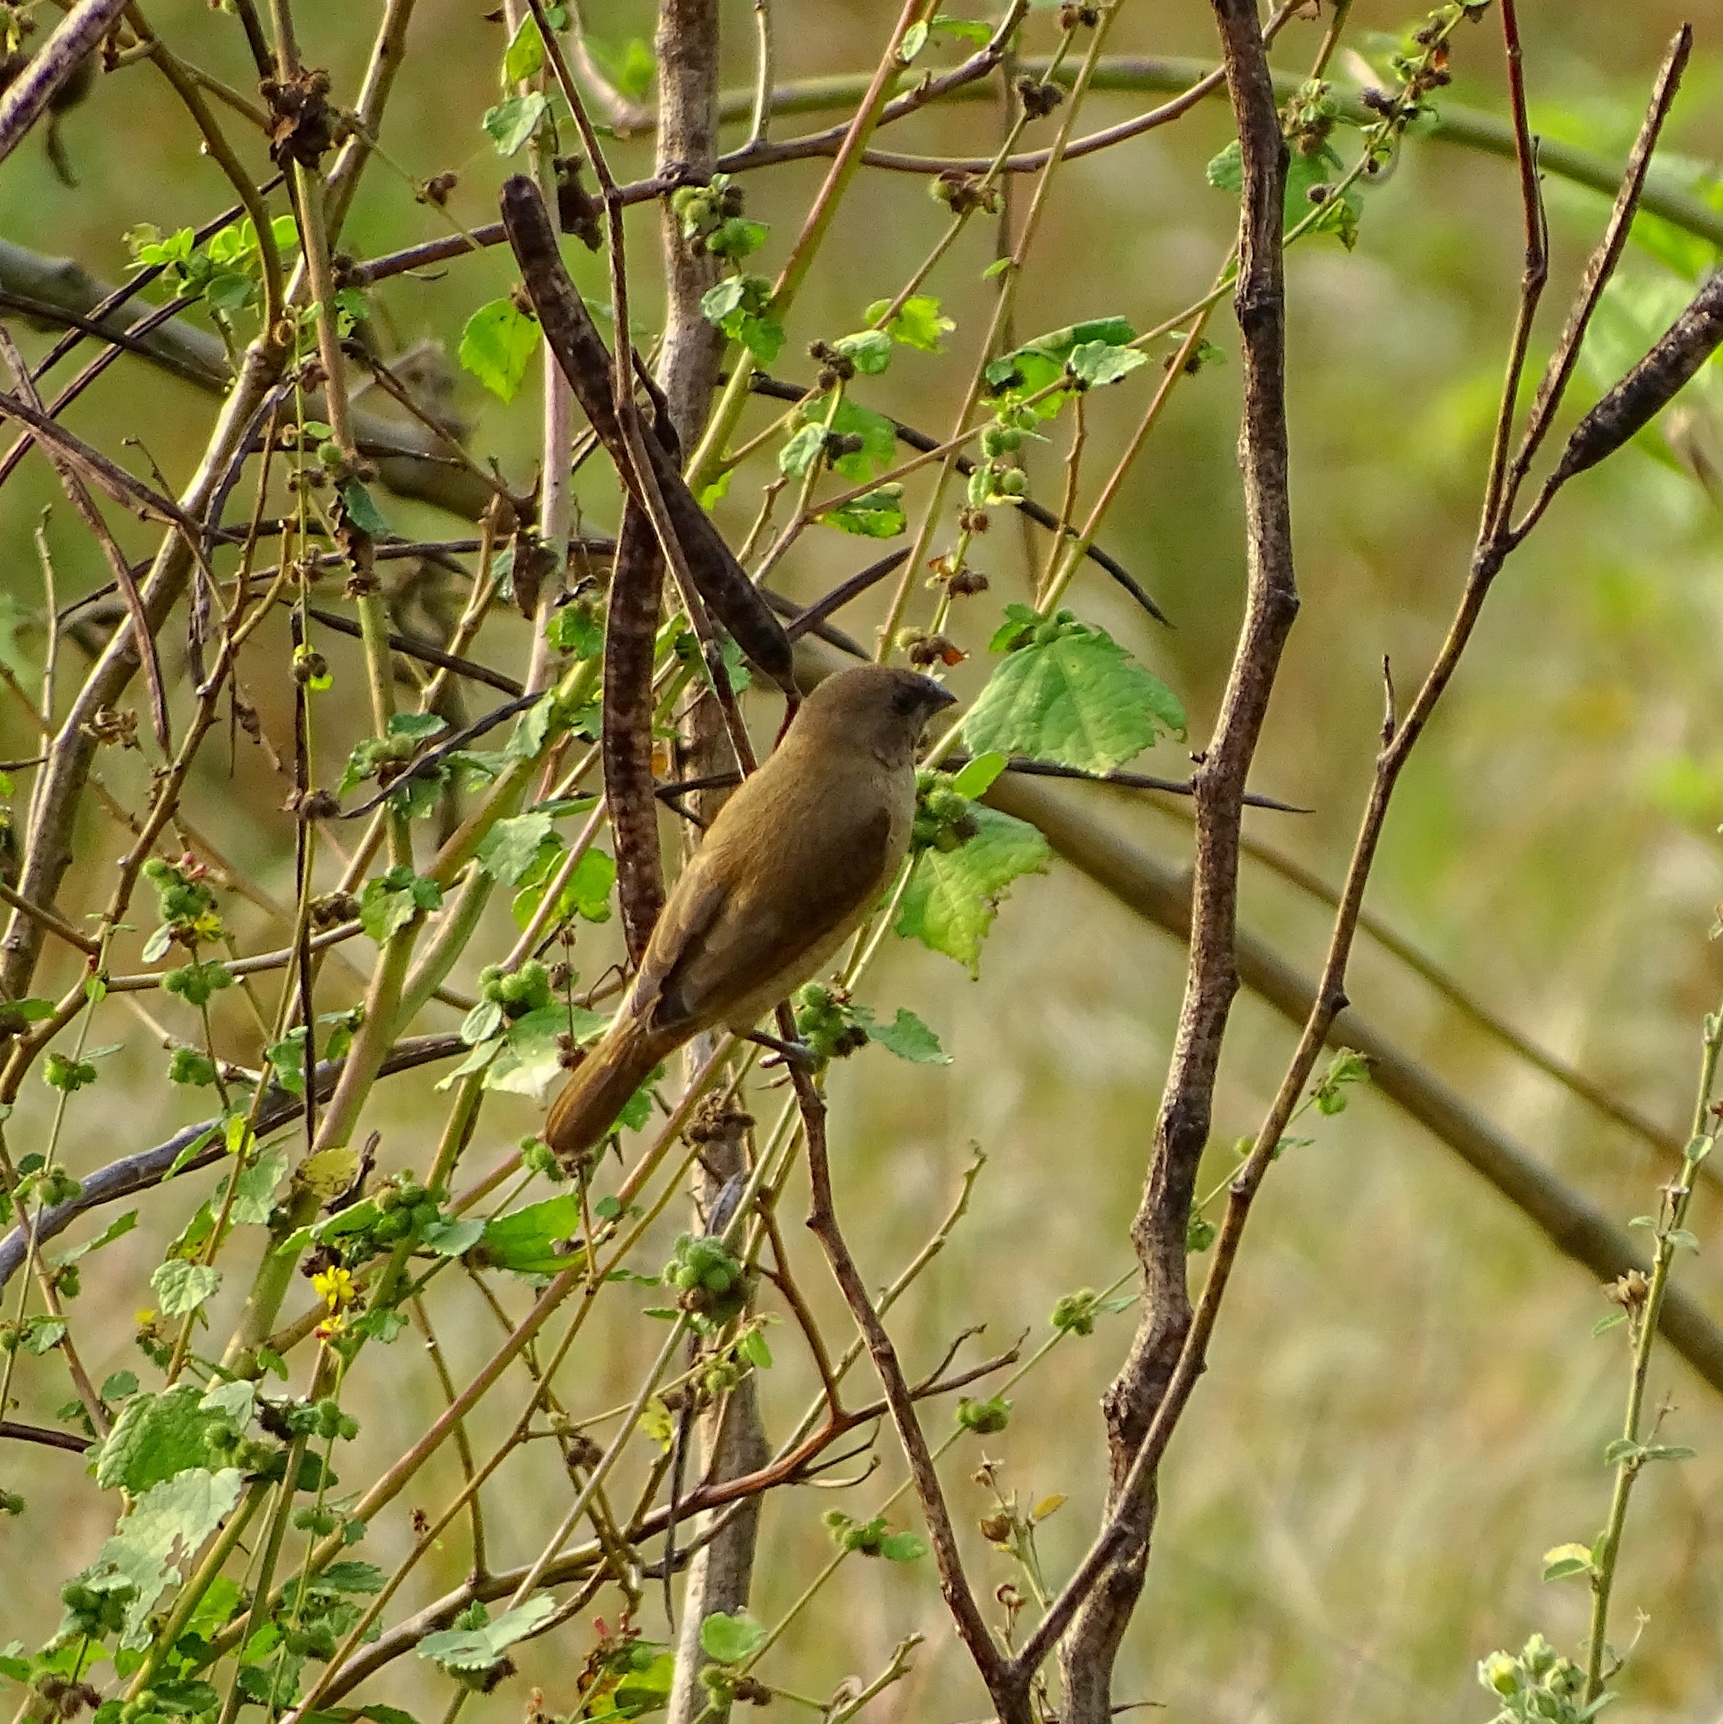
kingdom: Animalia
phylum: Chordata
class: Aves
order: Passeriformes
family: Estrildidae
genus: Lonchura
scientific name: Lonchura punctulata
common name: Scaly-breasted munia
